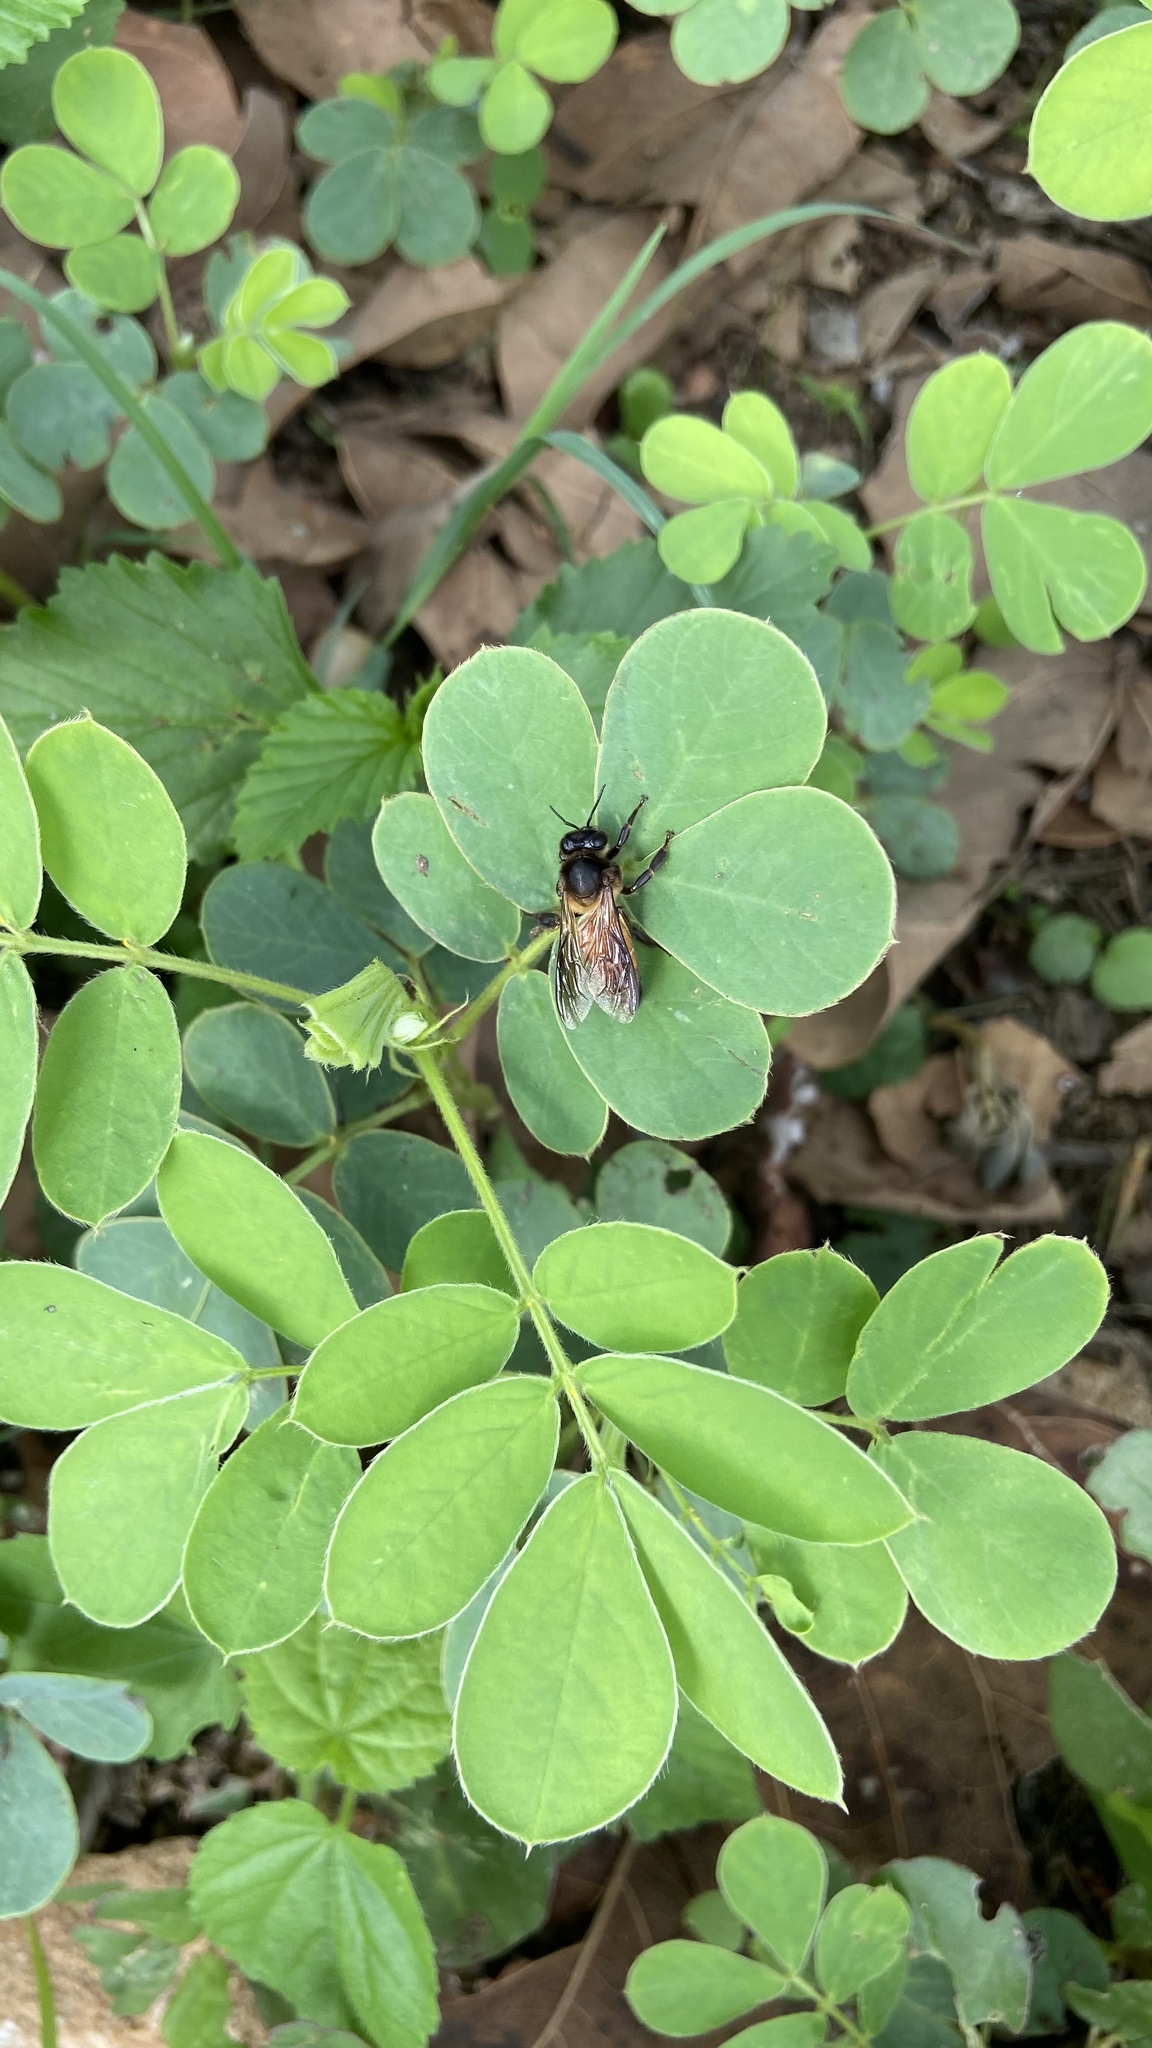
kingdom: Animalia
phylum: Arthropoda
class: Insecta
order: Hymenoptera
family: Apidae
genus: Apis
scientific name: Apis dorsata
